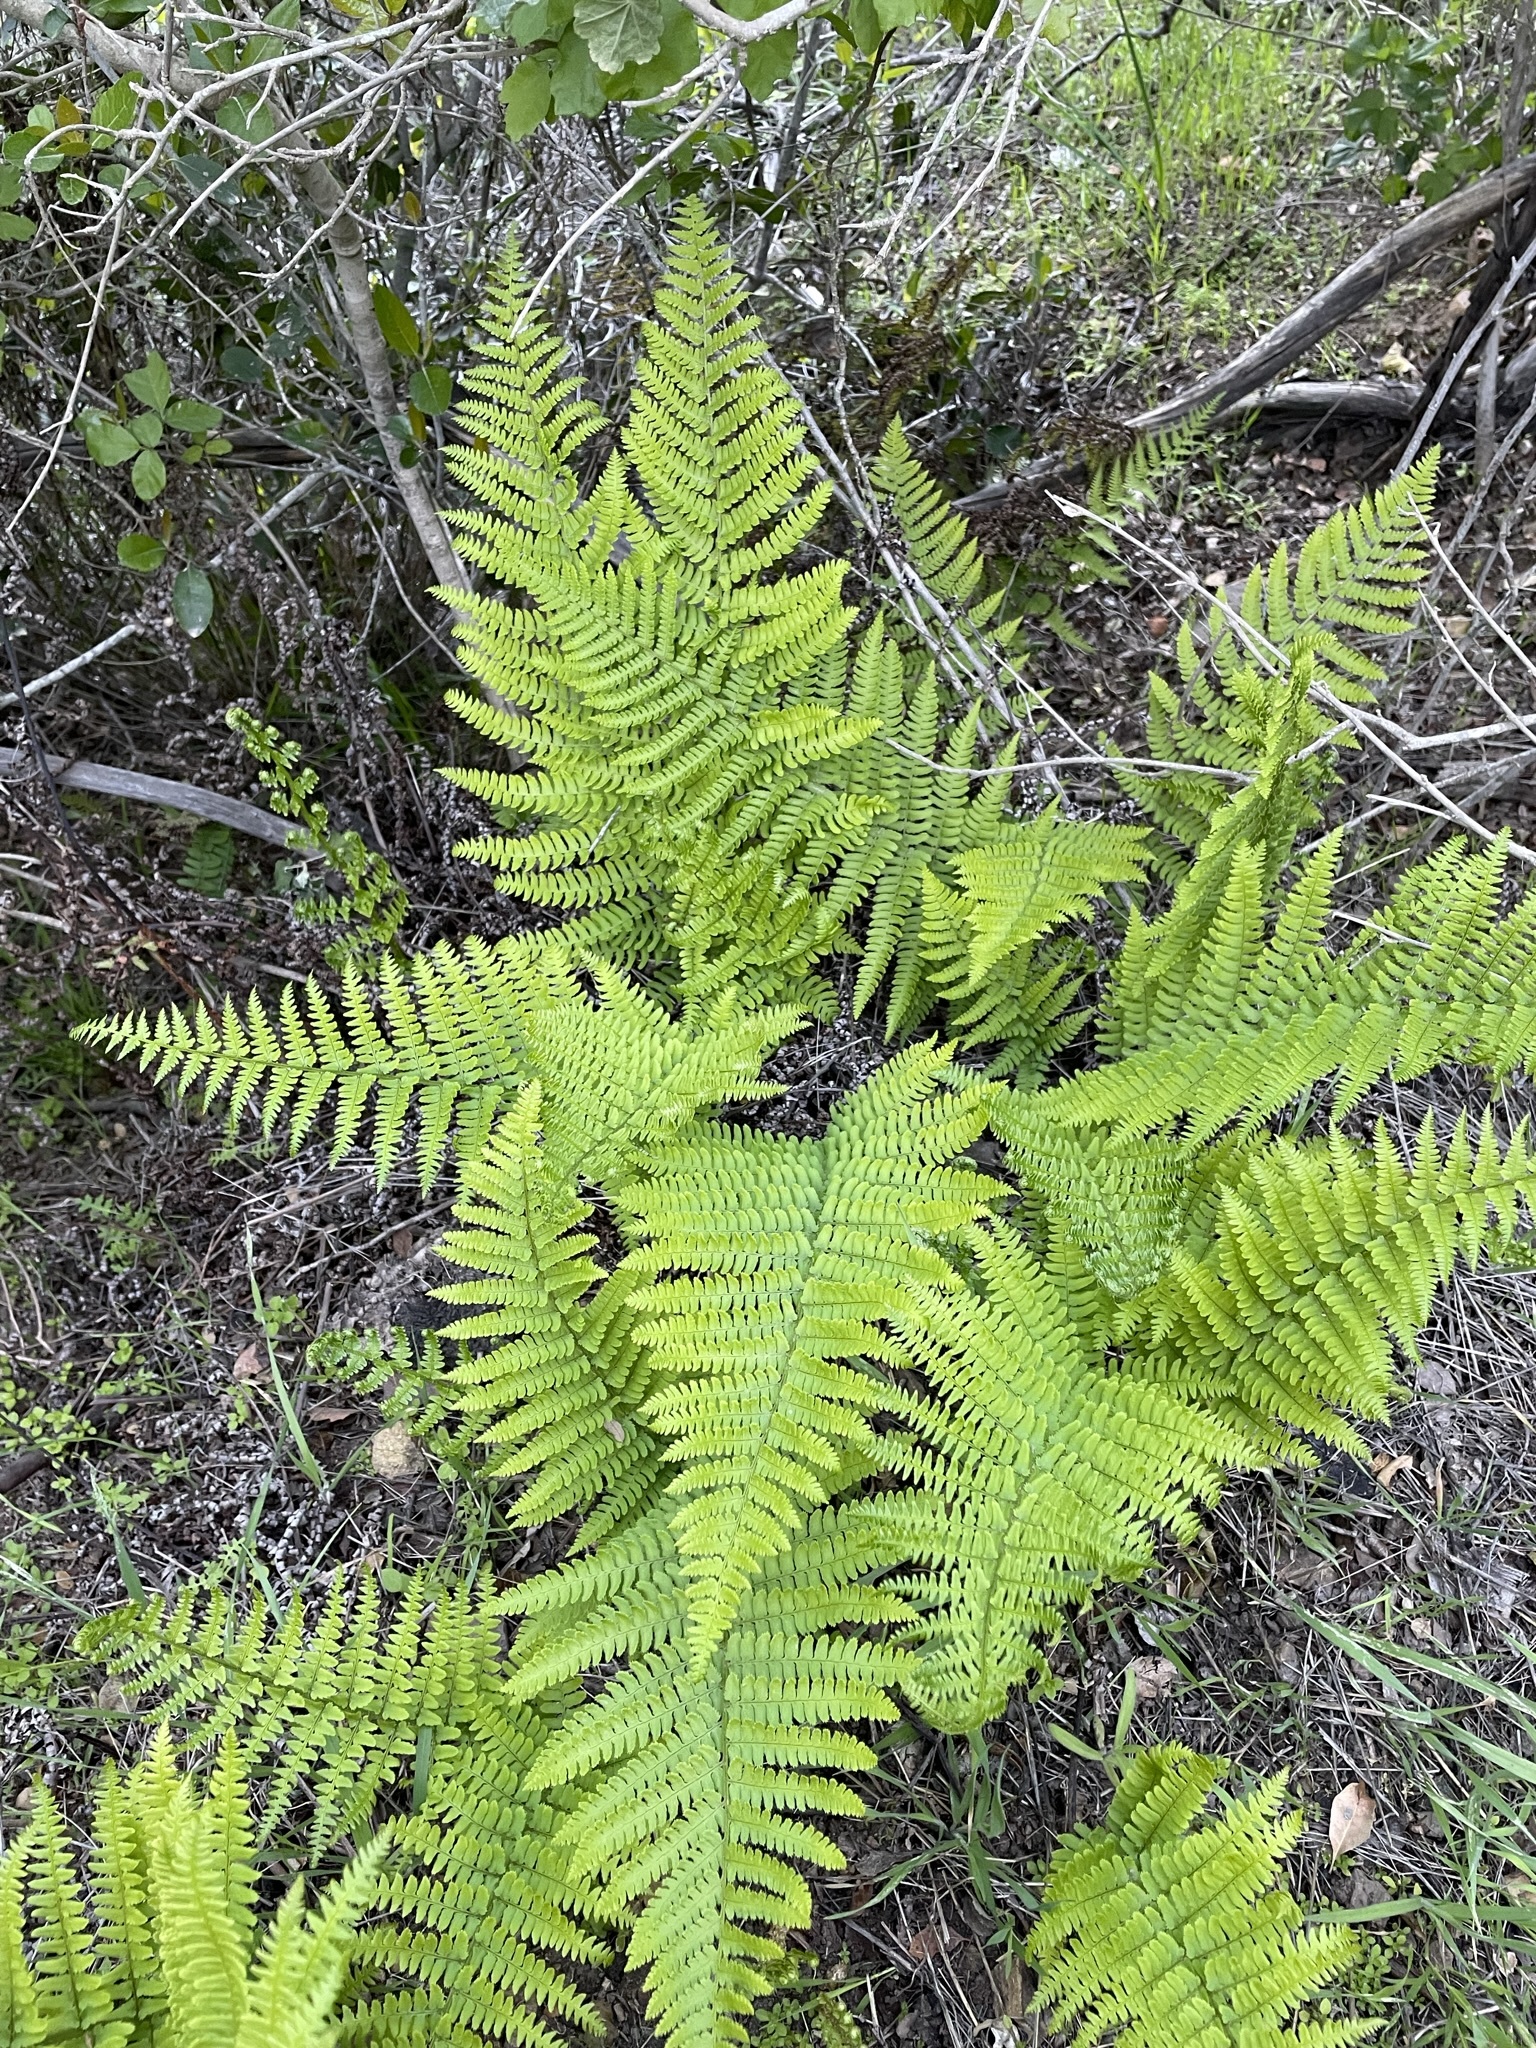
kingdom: Plantae
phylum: Tracheophyta
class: Polypodiopsida
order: Polypodiales
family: Dryopteridaceae
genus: Dryopteris
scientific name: Dryopteris arguta
